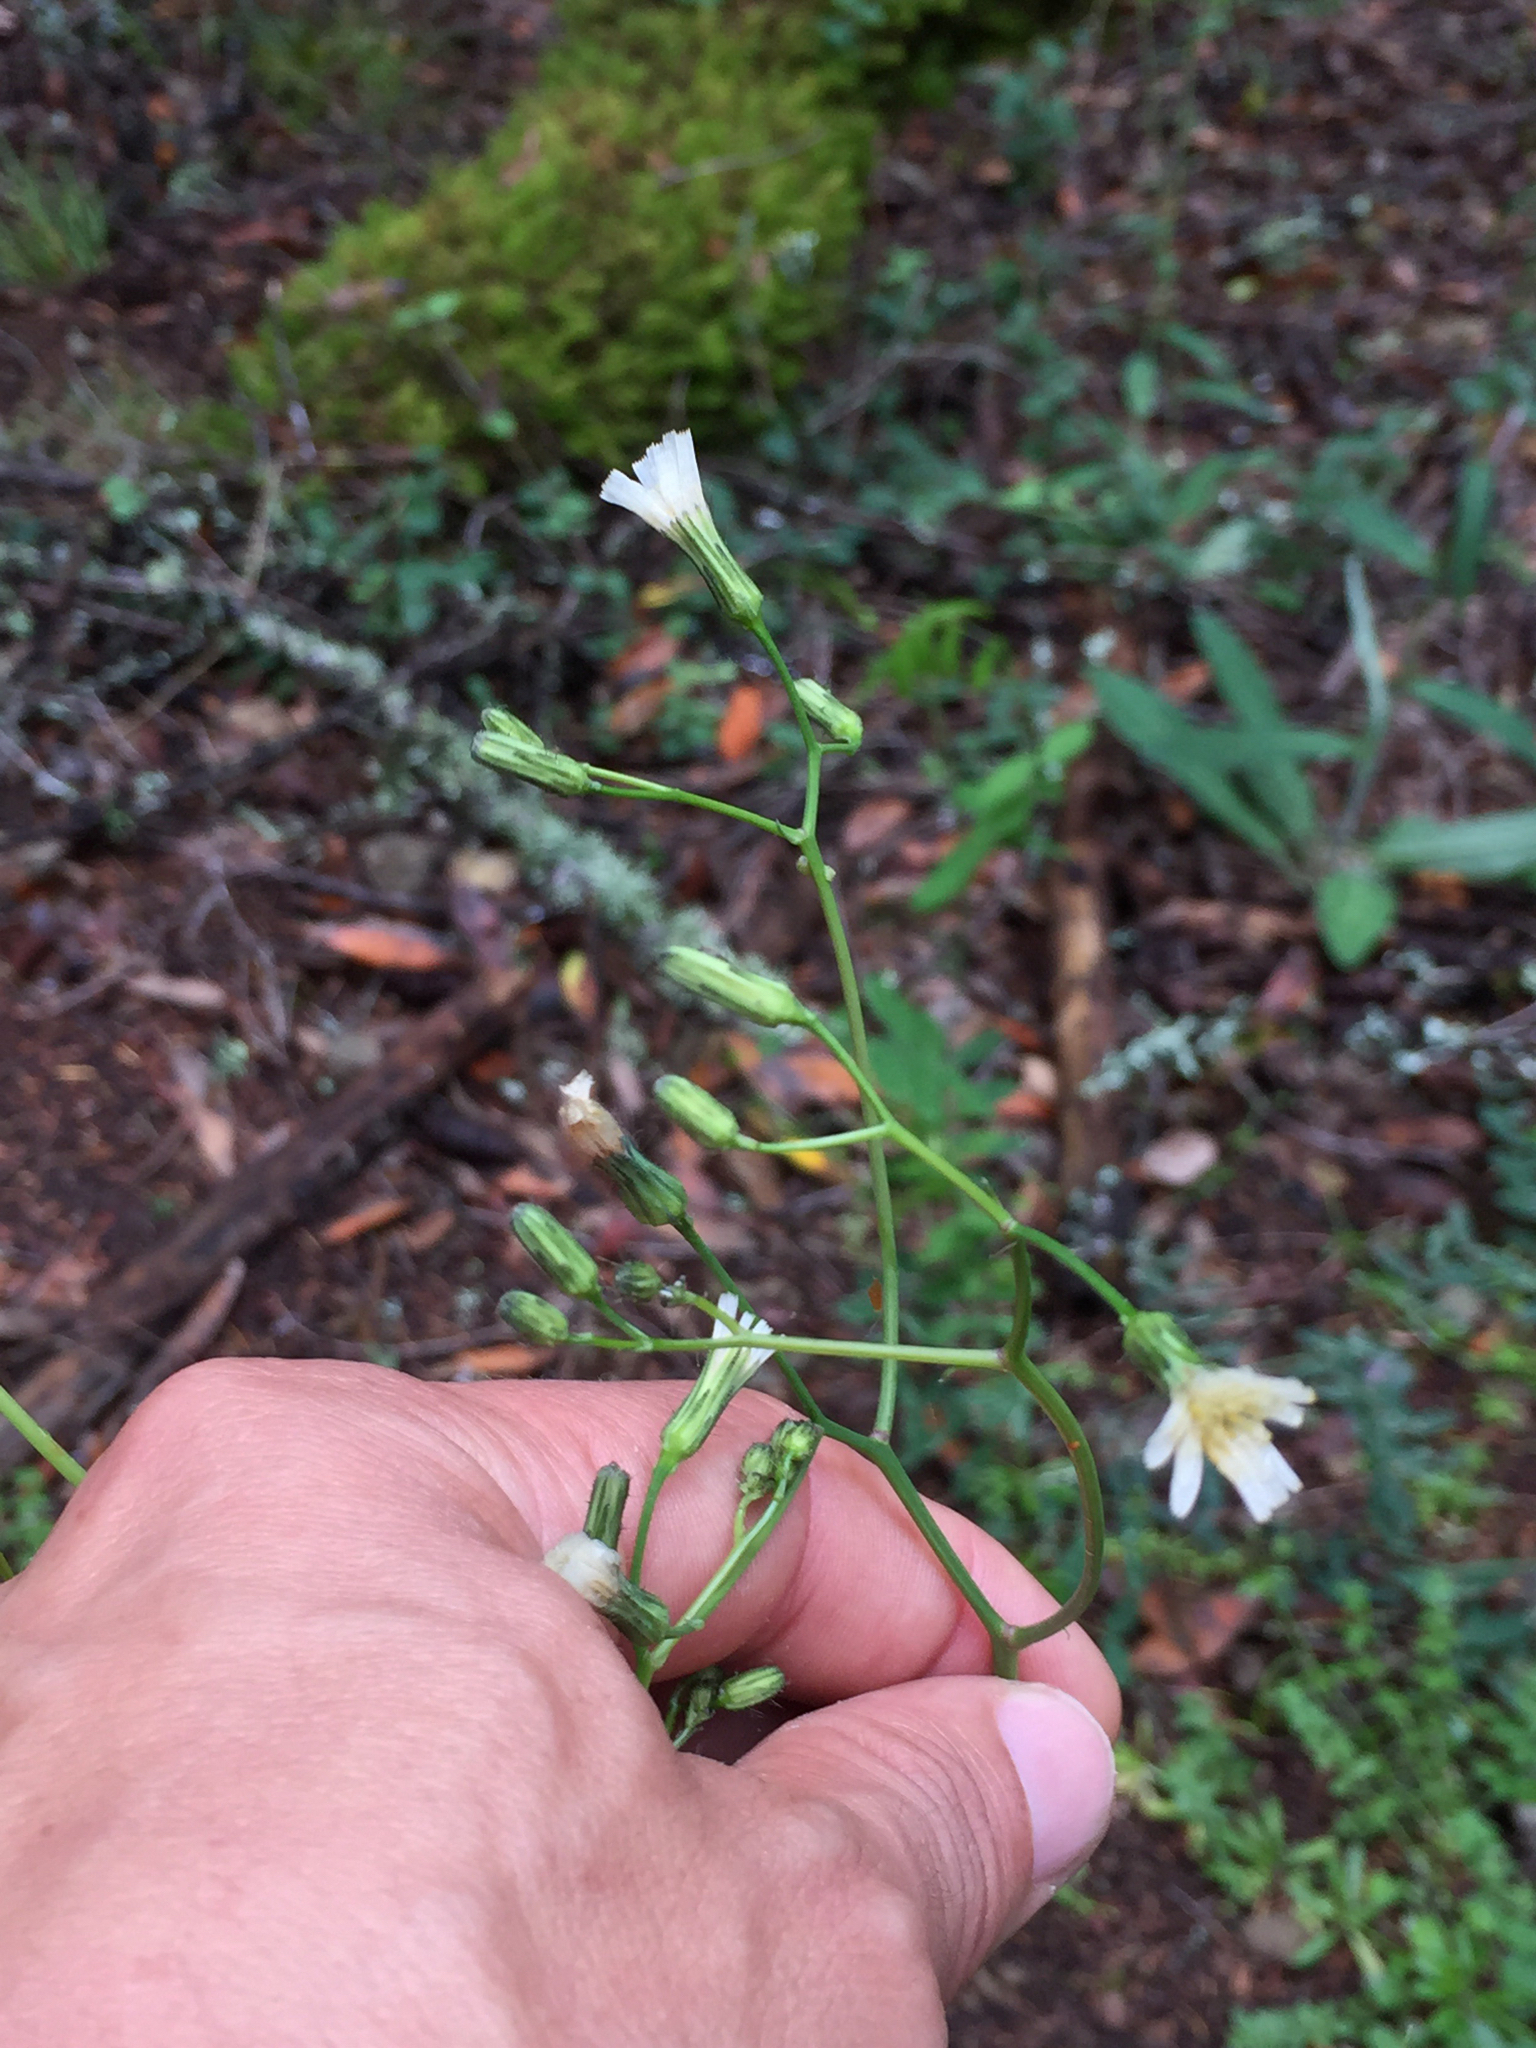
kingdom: Plantae
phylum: Tracheophyta
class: Magnoliopsida
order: Asterales
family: Asteraceae
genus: Hieracium
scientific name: Hieracium albiflorum
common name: White hawkweed
